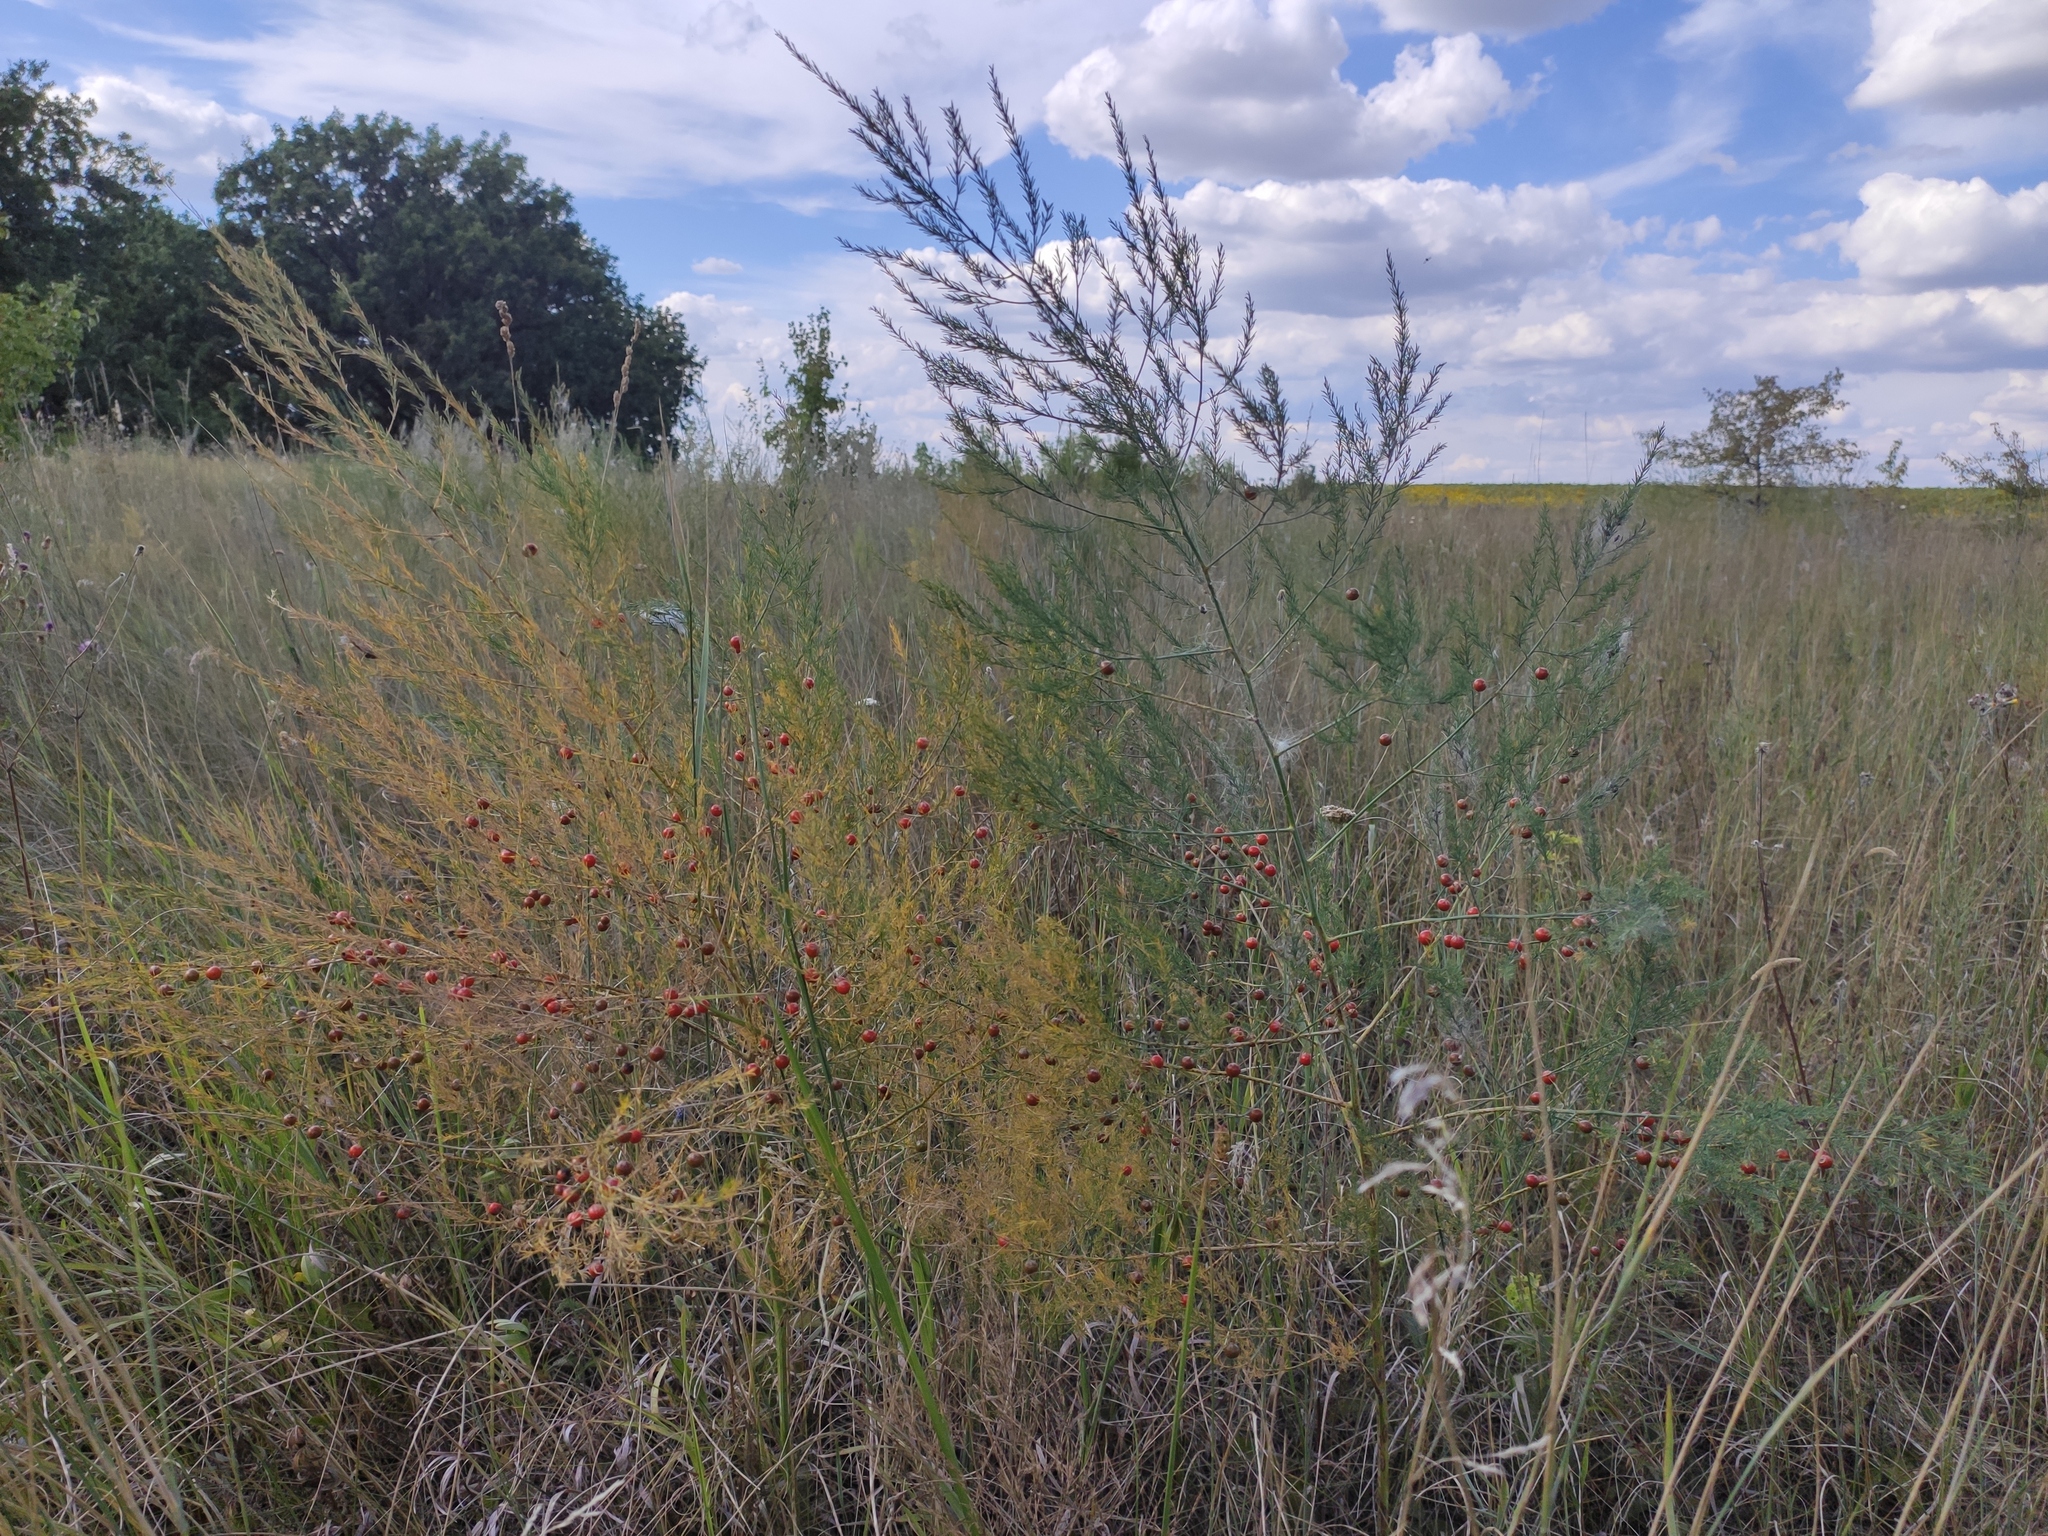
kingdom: Plantae
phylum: Tracheophyta
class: Liliopsida
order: Asparagales
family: Asparagaceae
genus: Asparagus
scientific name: Asparagus officinalis
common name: Garden asparagus
